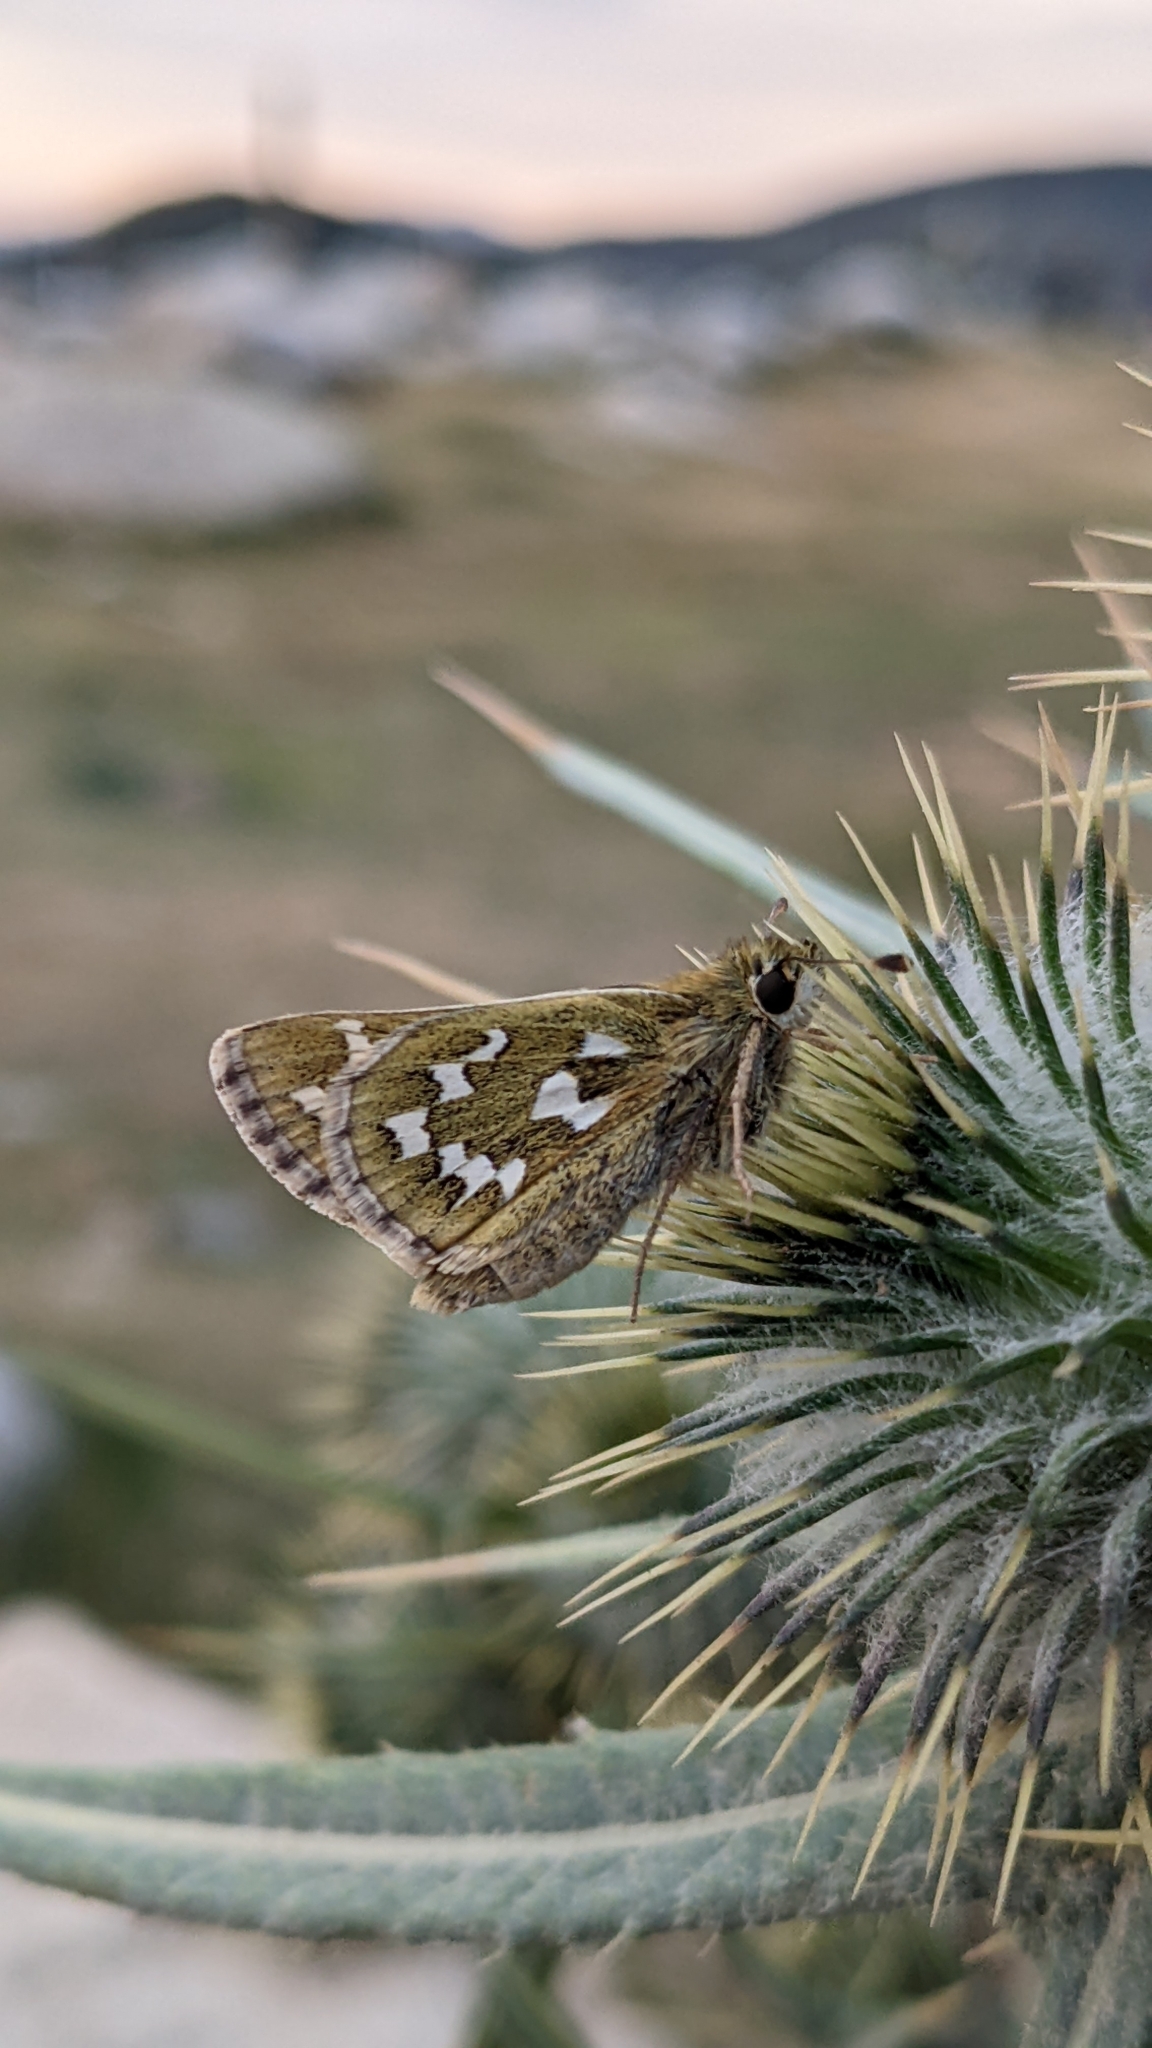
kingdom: Animalia
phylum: Arthropoda
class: Insecta
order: Lepidoptera
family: Hesperiidae
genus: Hesperia
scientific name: Hesperia comma
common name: Common branded skipper
